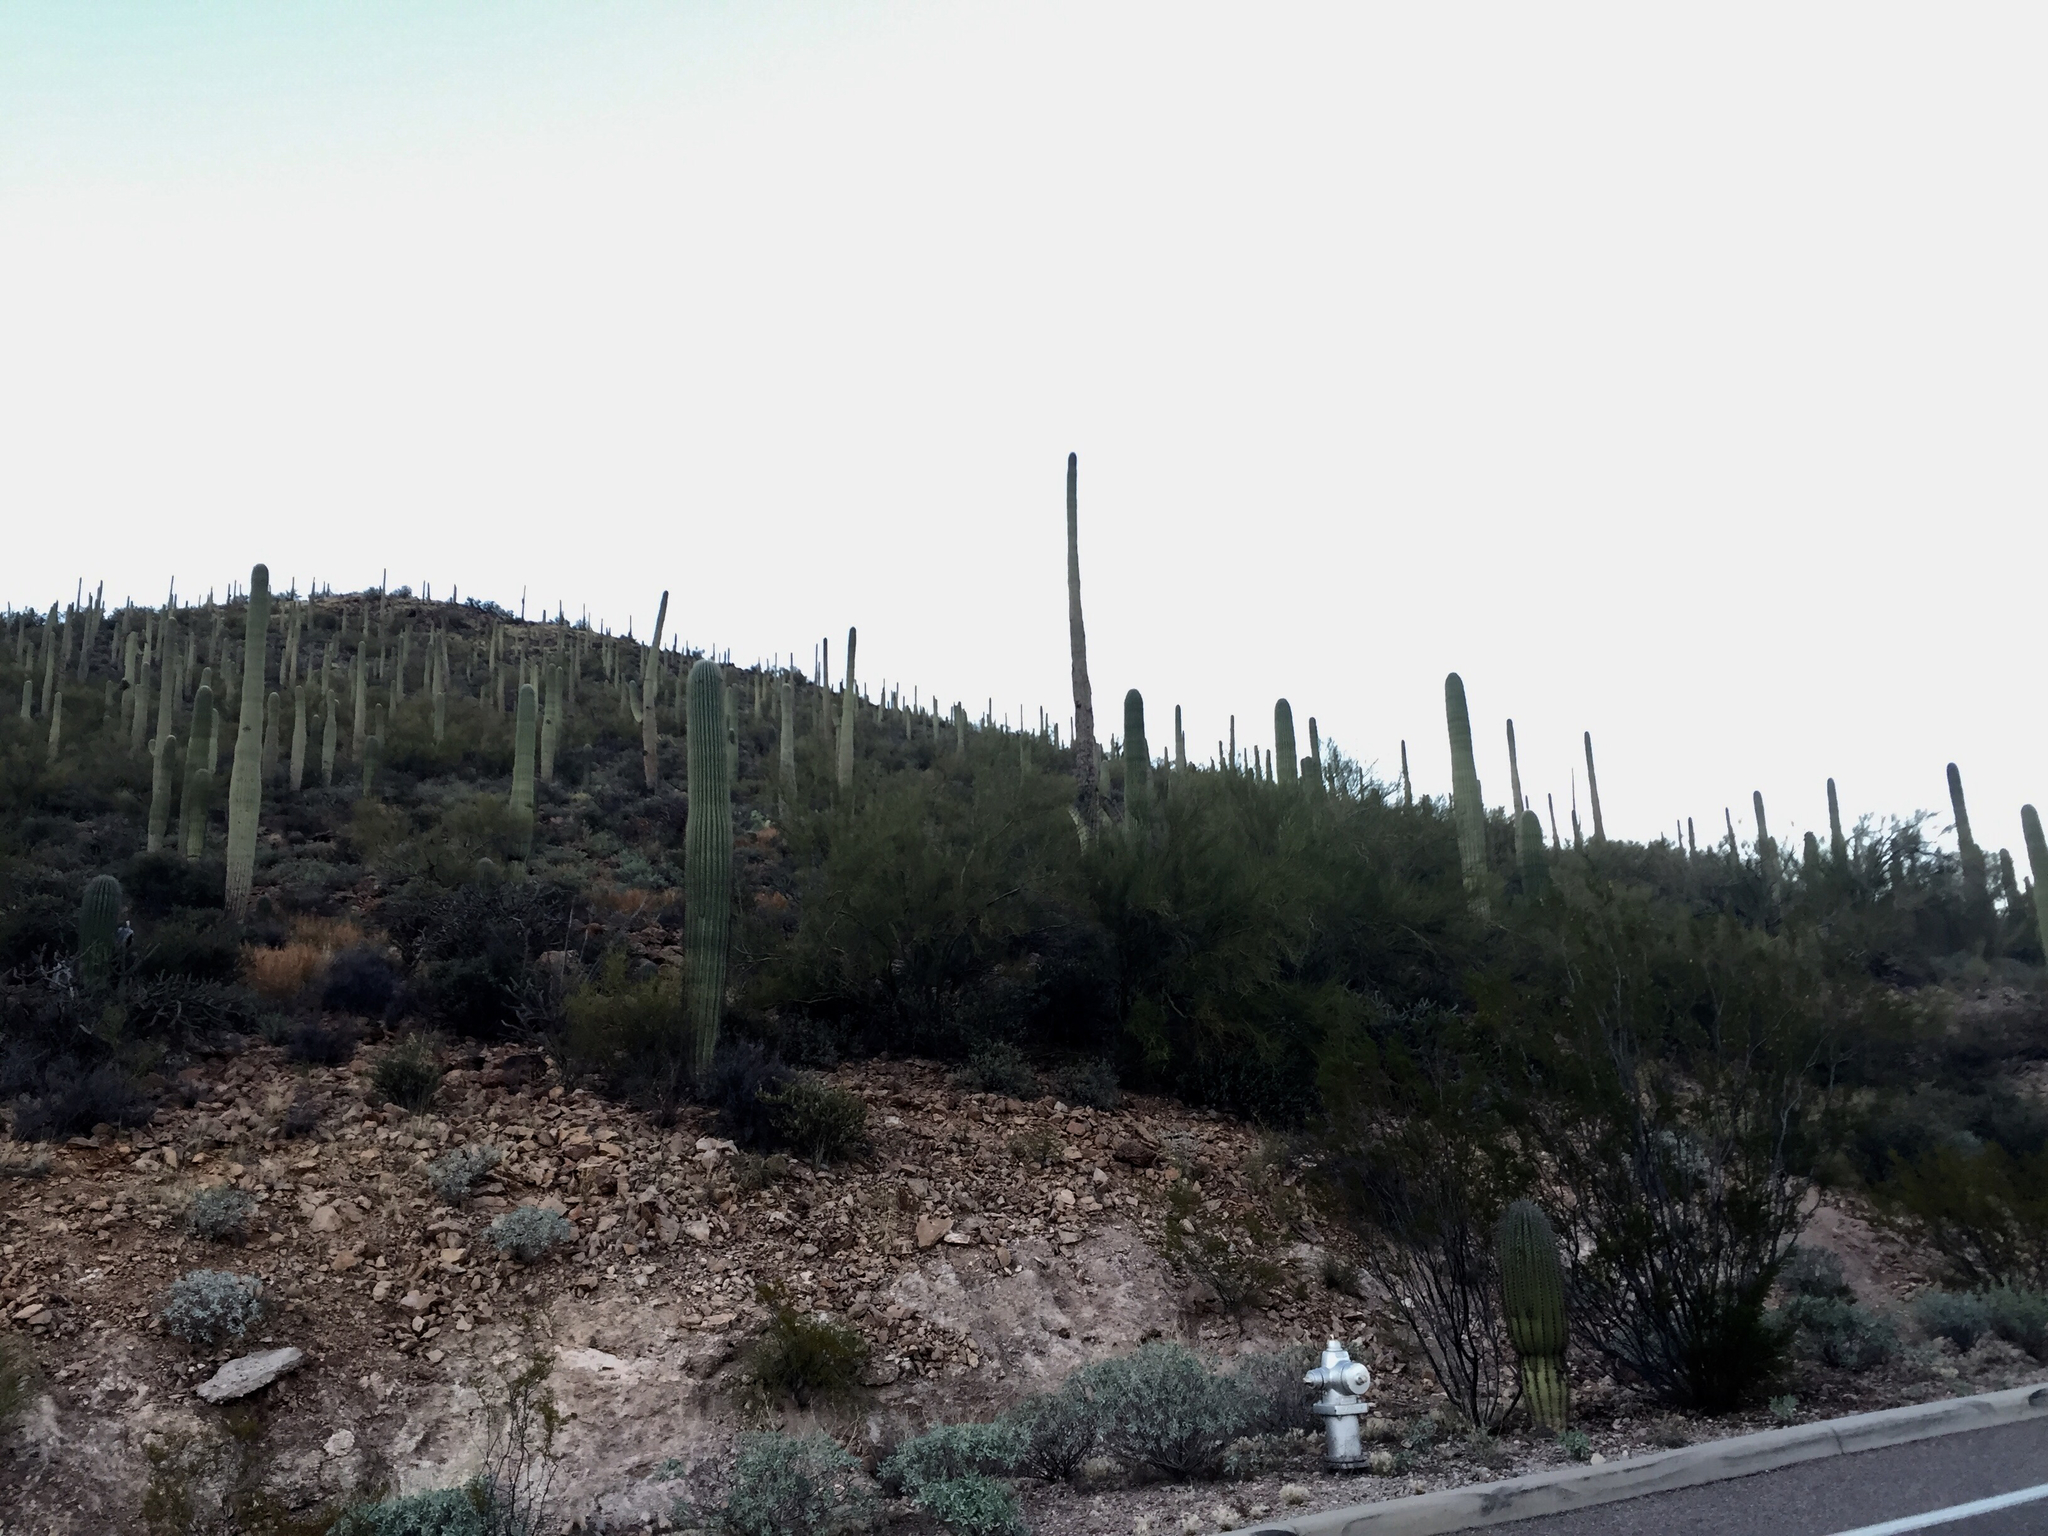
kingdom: Plantae
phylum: Tracheophyta
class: Magnoliopsida
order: Caryophyllales
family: Cactaceae
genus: Carnegiea
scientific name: Carnegiea gigantea
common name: Saguaro
